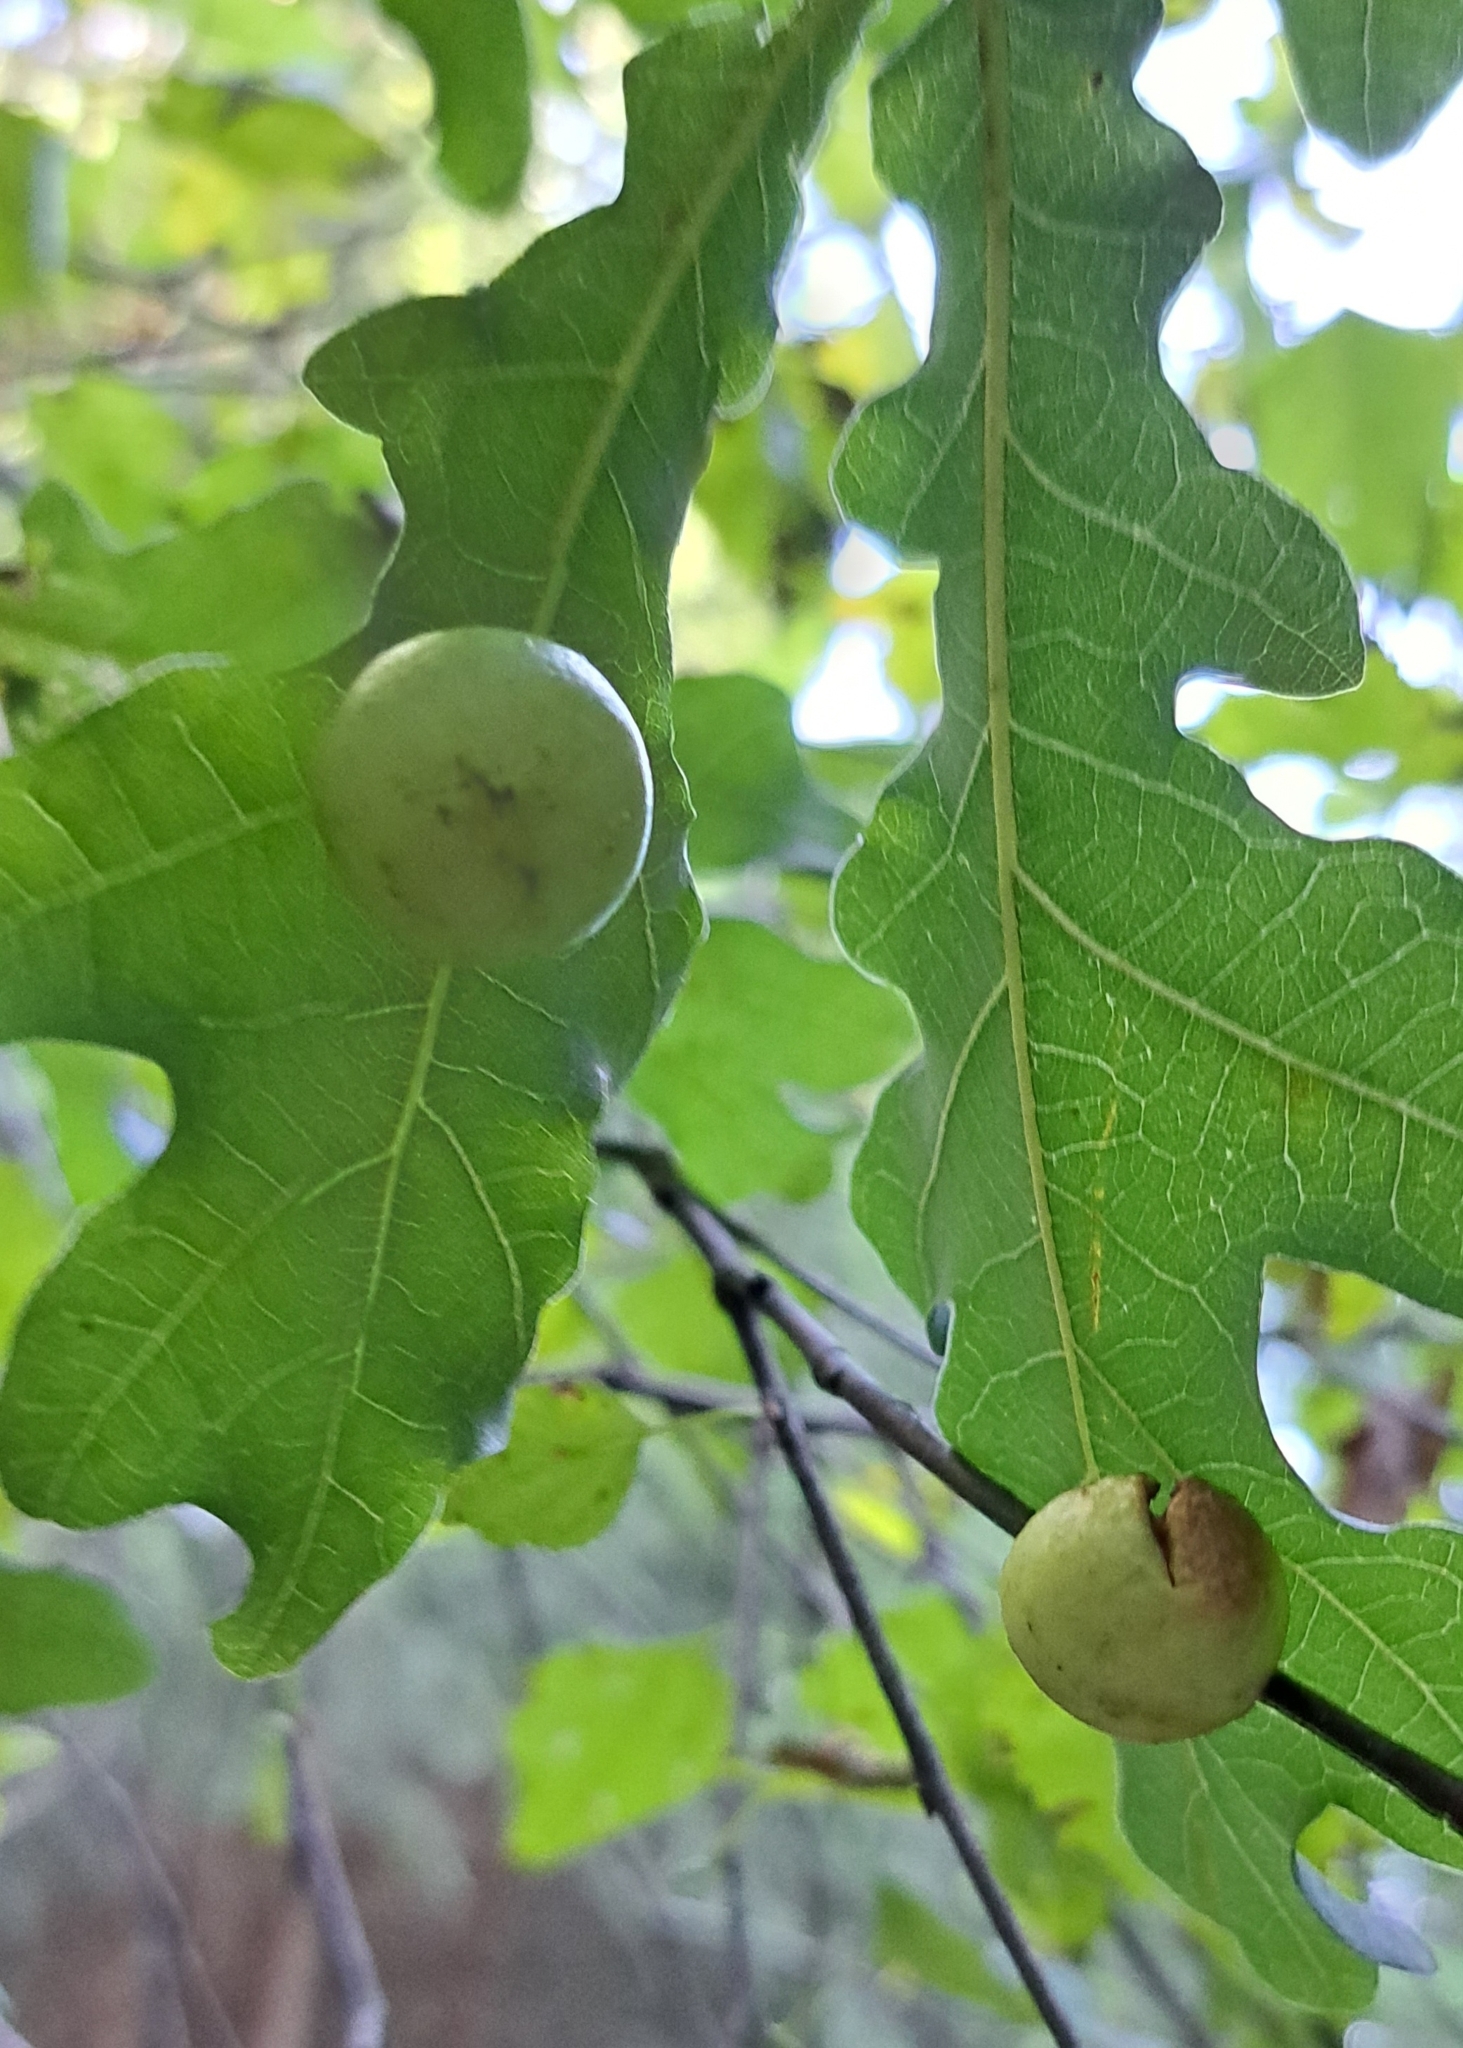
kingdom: Animalia
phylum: Arthropoda
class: Insecta
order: Hymenoptera
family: Cynipidae
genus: Cynips
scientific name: Cynips quercusfolii
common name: Cherry gall
